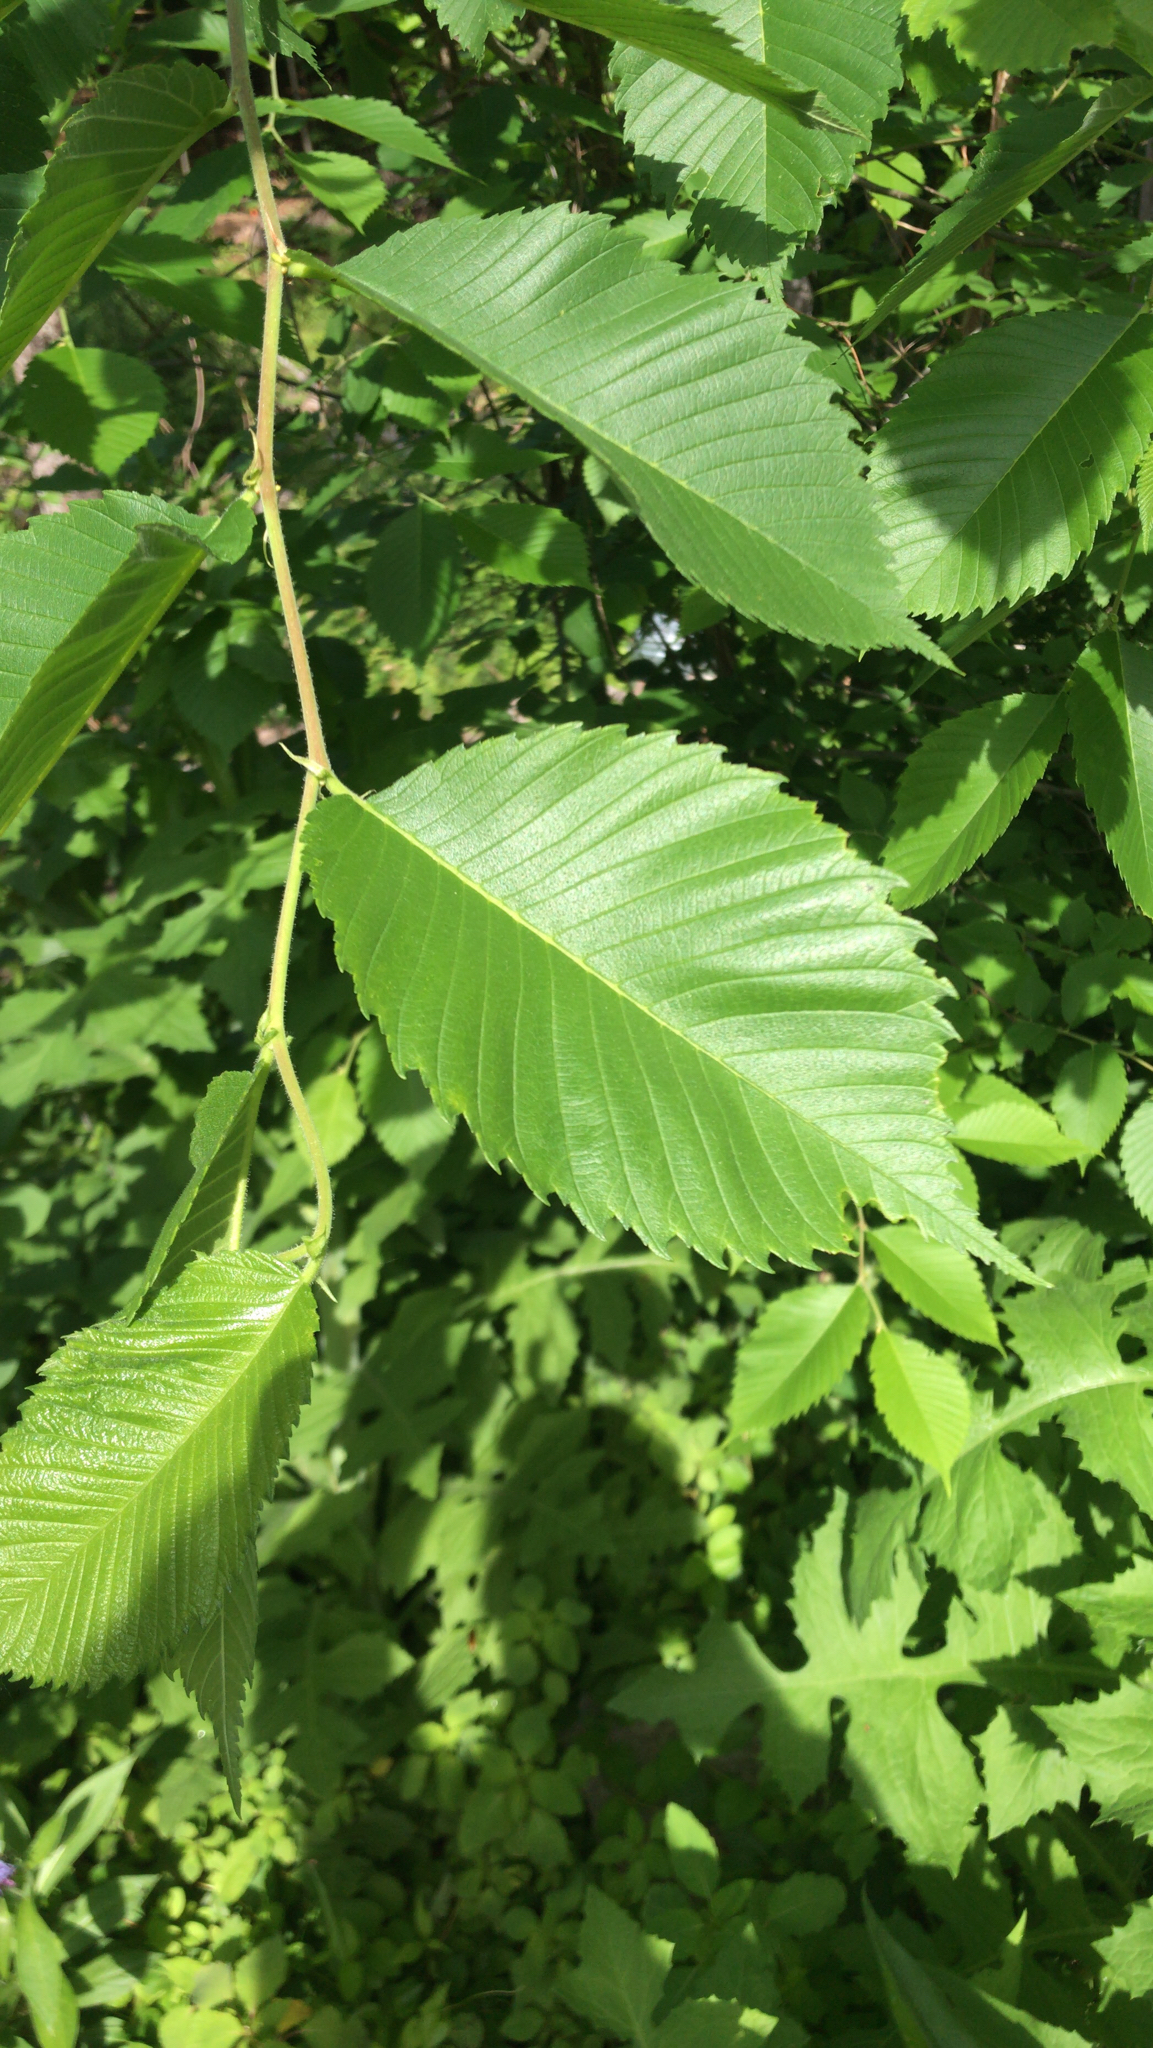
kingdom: Plantae
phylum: Tracheophyta
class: Magnoliopsida
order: Rosales
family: Ulmaceae
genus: Ulmus
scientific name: Ulmus americana
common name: American elm
